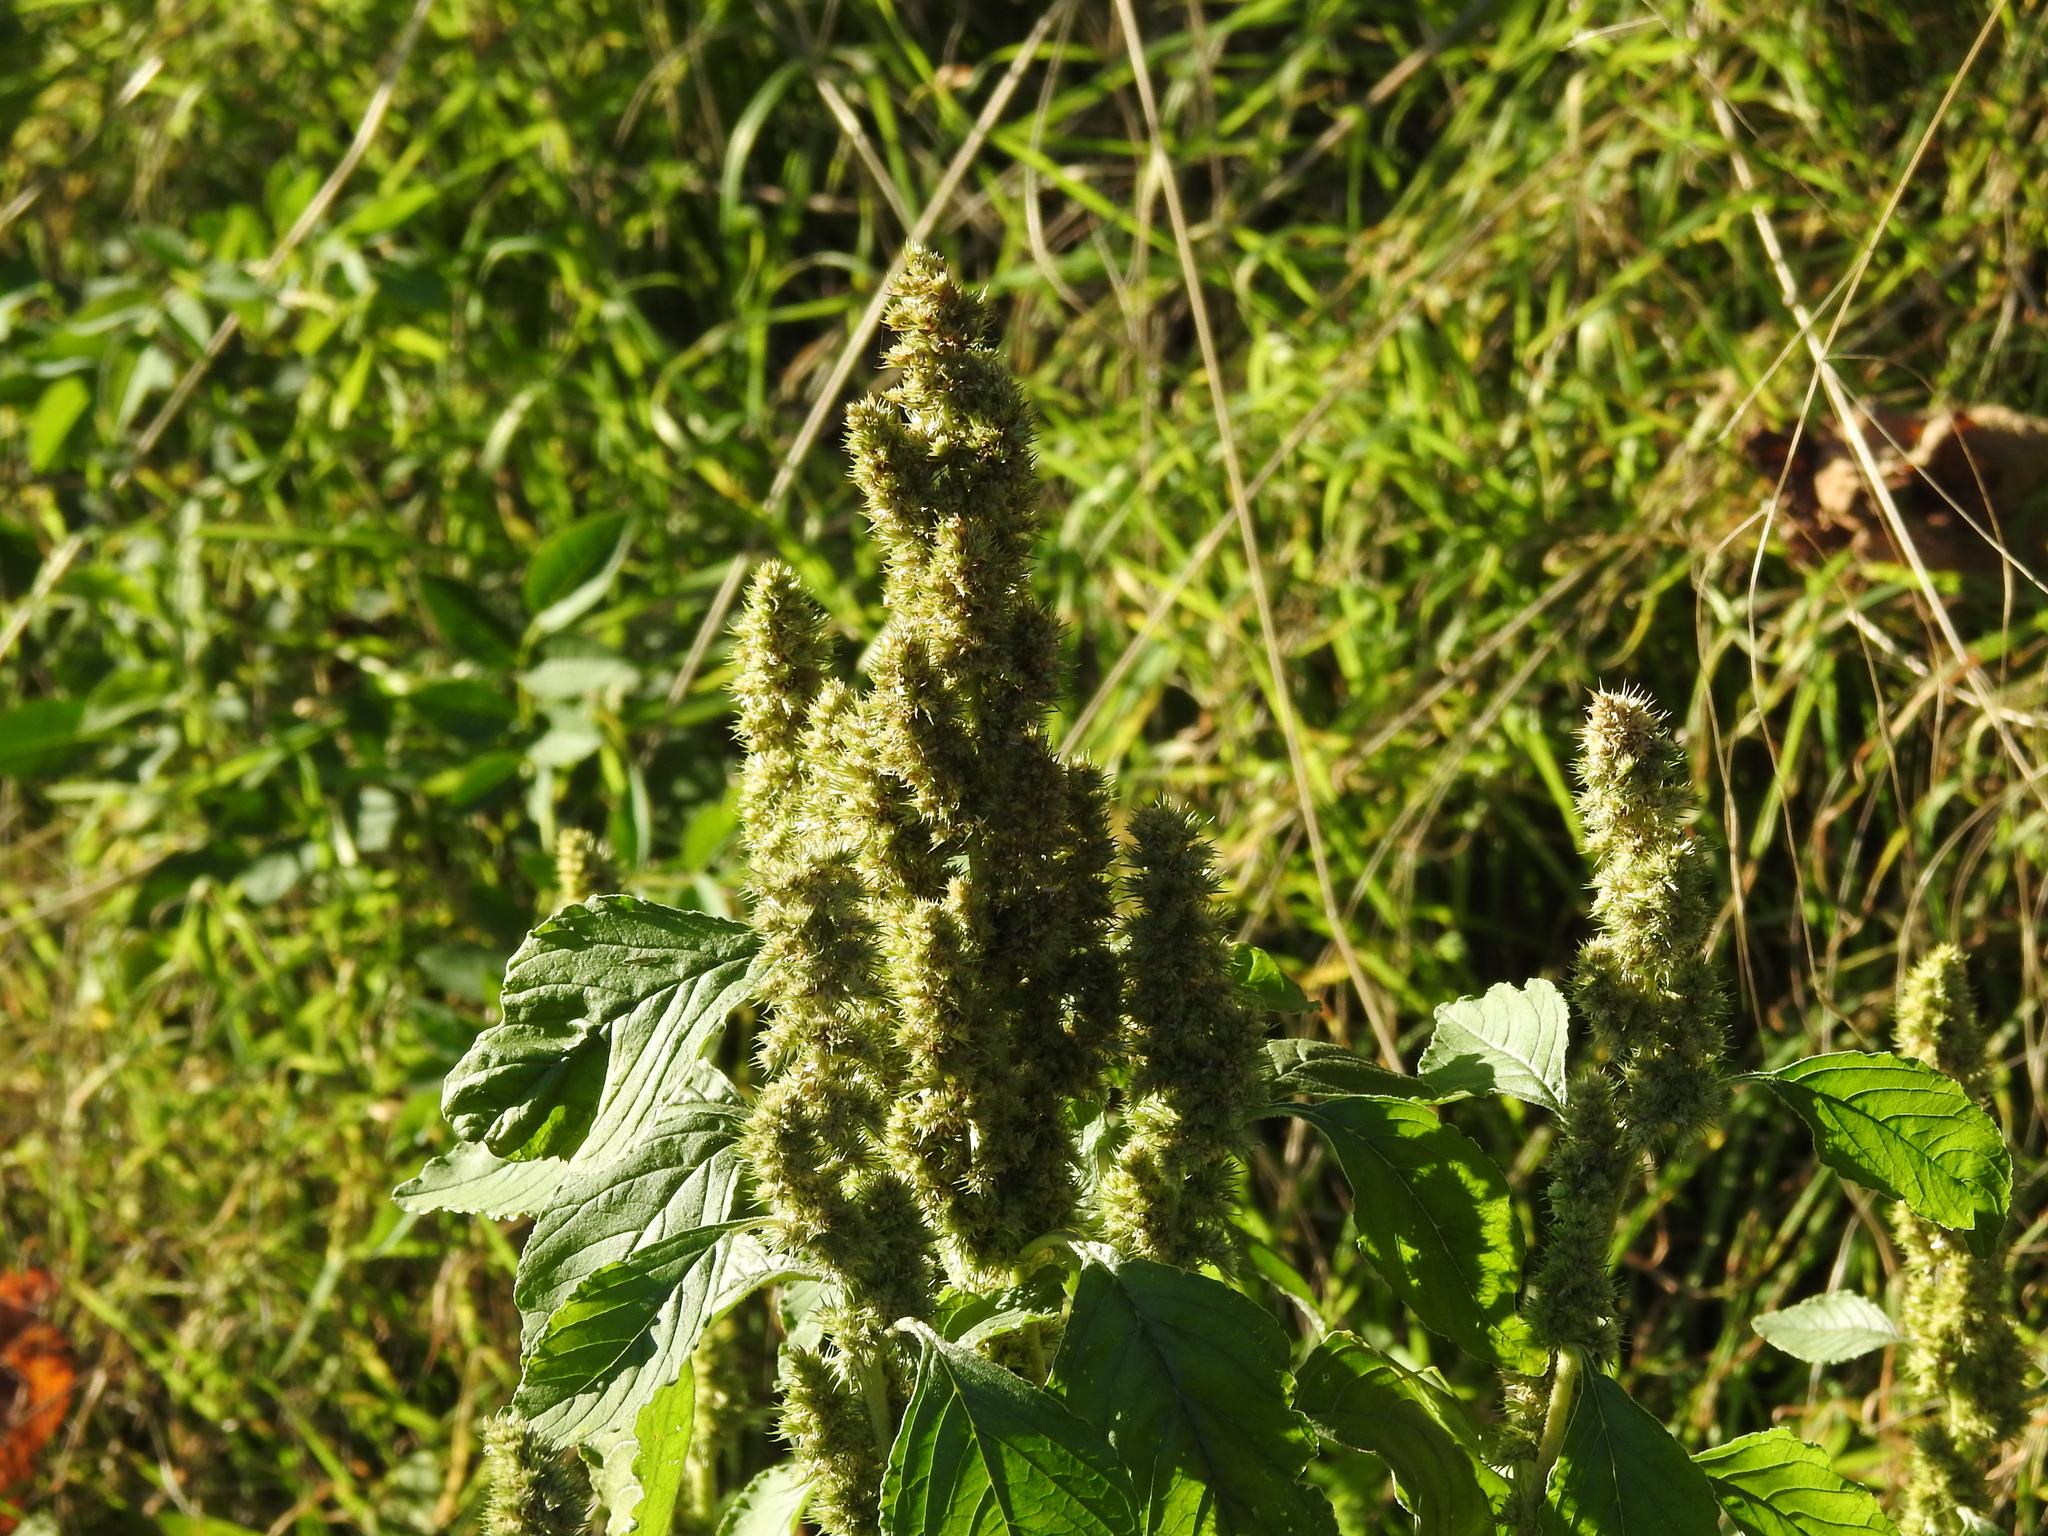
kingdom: Plantae
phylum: Tracheophyta
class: Magnoliopsida
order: Caryophyllales
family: Amaranthaceae
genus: Amaranthus
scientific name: Amaranthus retroflexus
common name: Redroot amaranth
